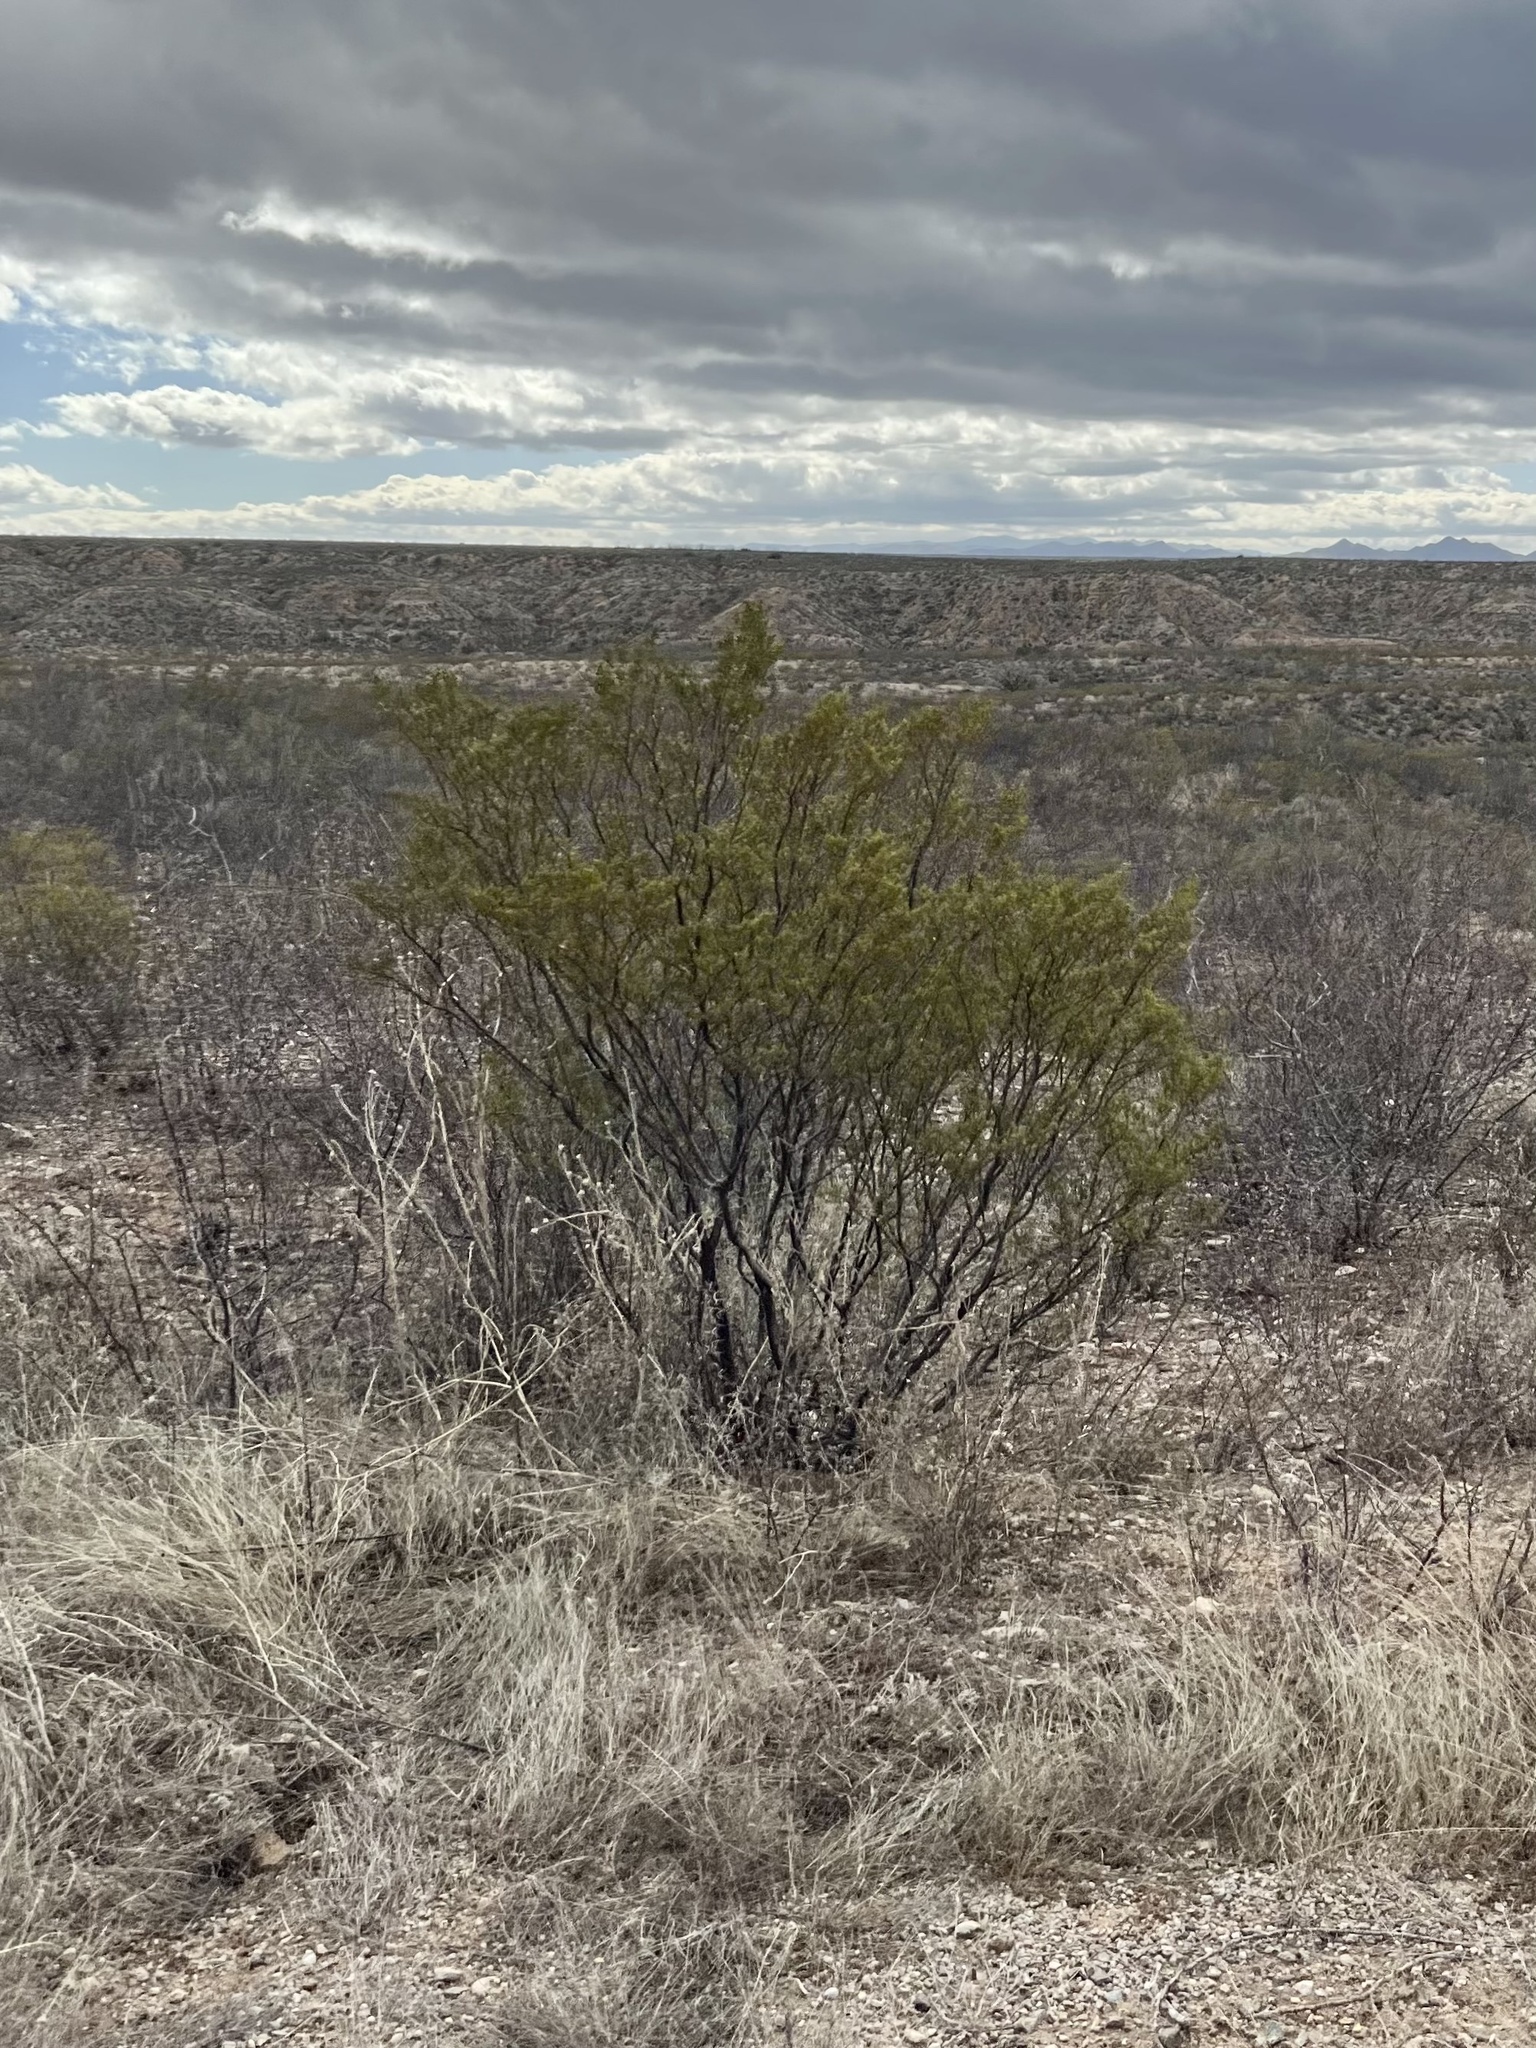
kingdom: Plantae
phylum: Tracheophyta
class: Magnoliopsida
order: Zygophyllales
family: Zygophyllaceae
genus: Larrea
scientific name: Larrea tridentata
